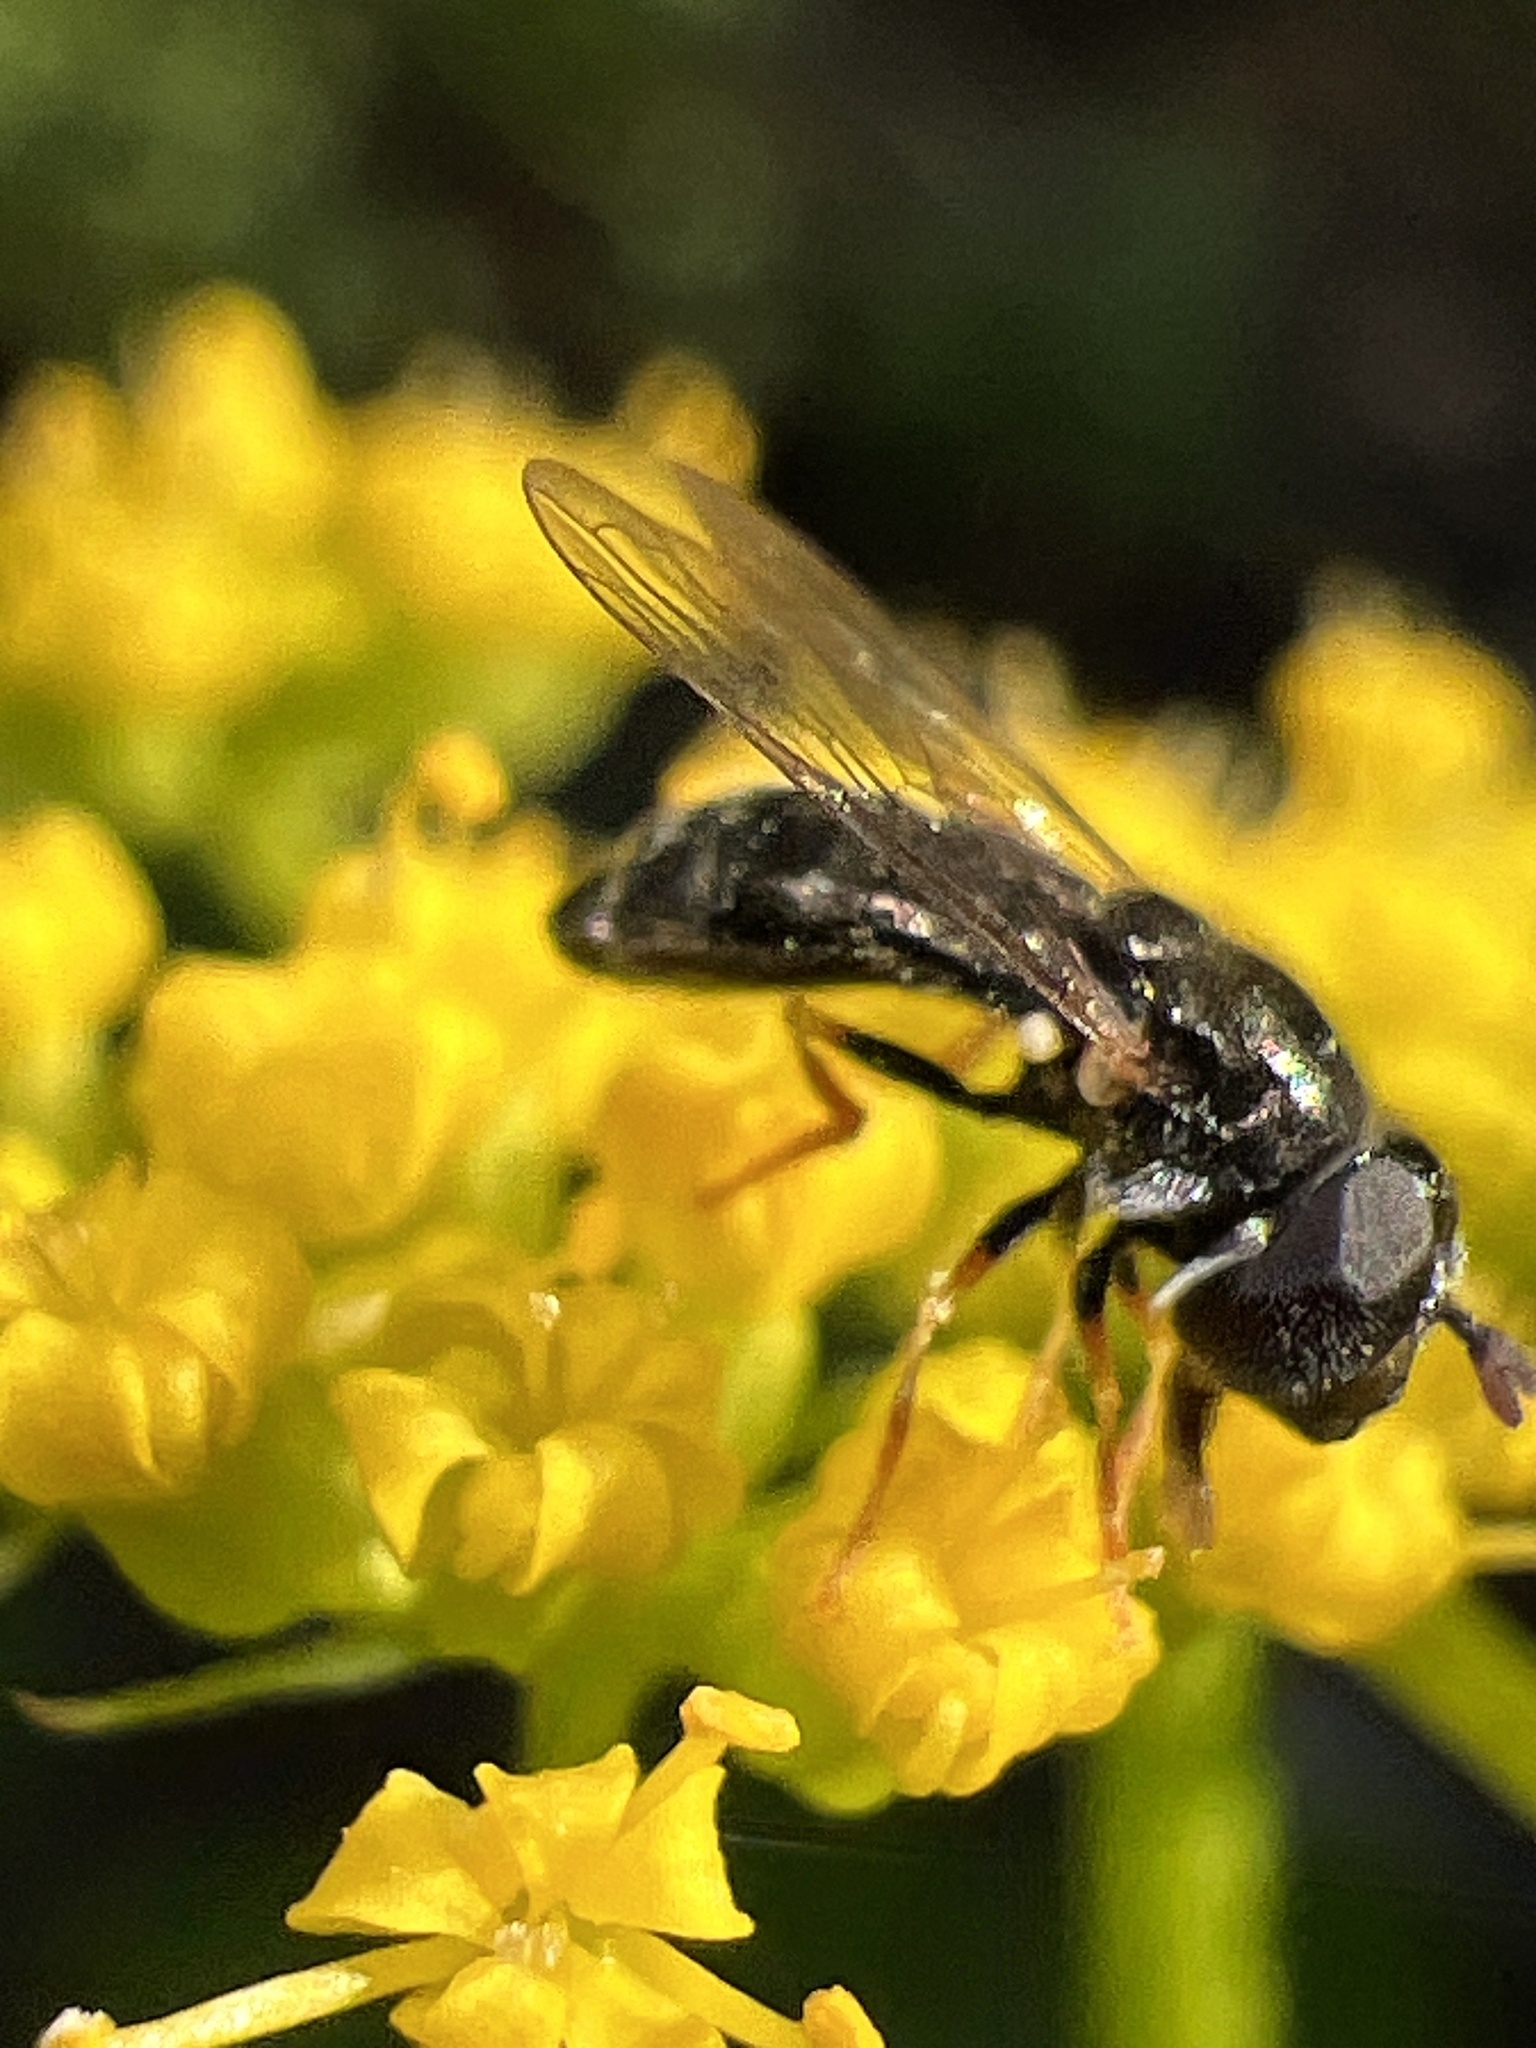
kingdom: Animalia
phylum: Arthropoda
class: Insecta
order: Diptera
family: Syrphidae
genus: Paragus
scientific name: Paragus haemorrhous
